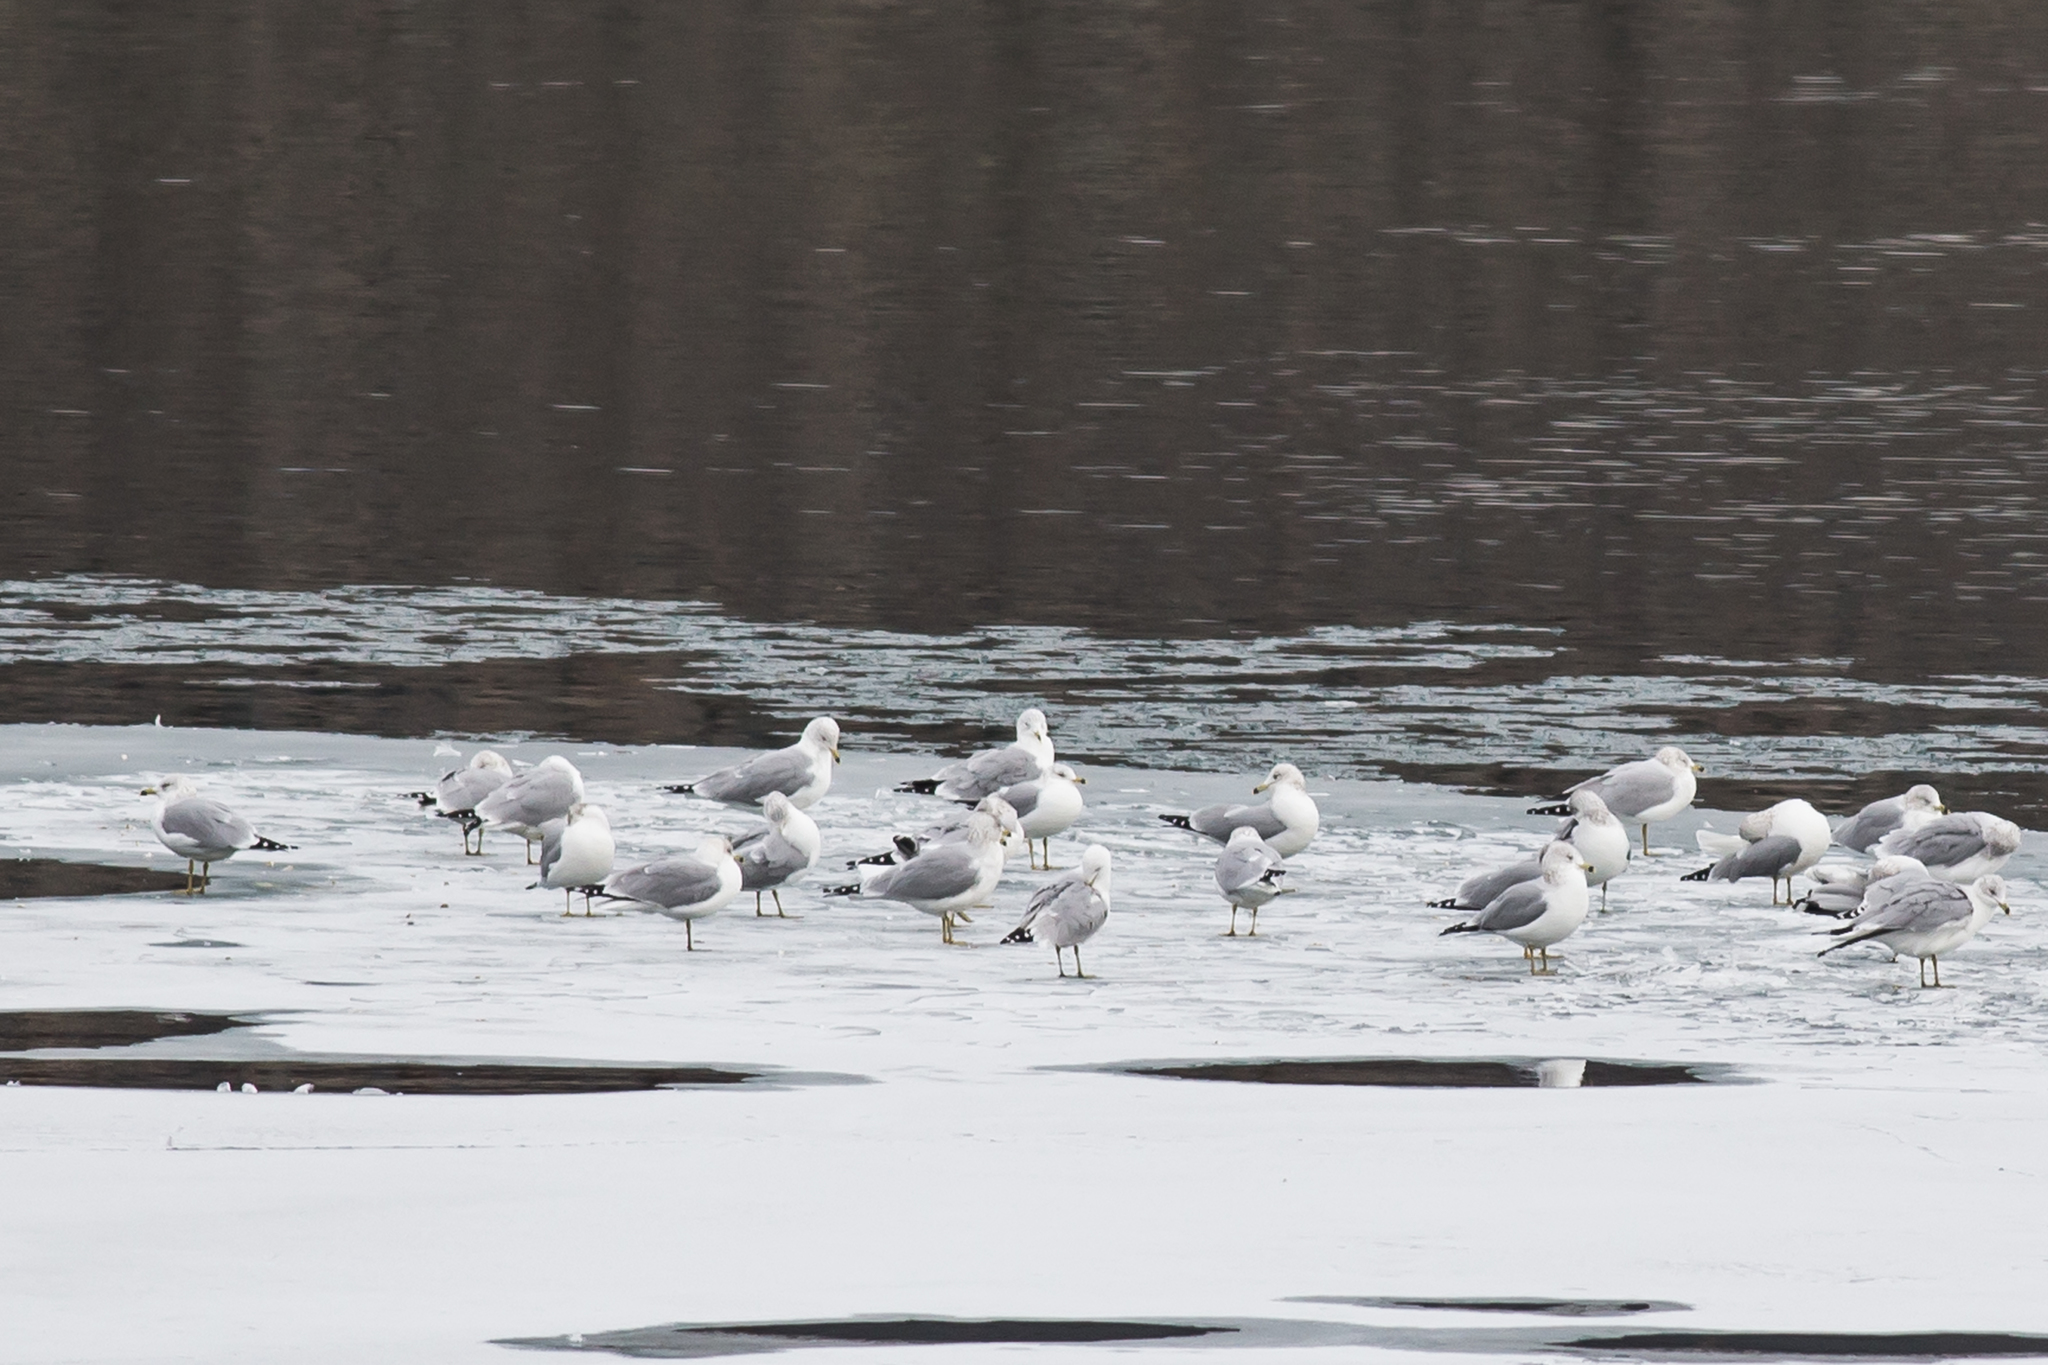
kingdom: Animalia
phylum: Chordata
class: Aves
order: Charadriiformes
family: Laridae
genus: Larus
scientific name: Larus delawarensis
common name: Ring-billed gull
